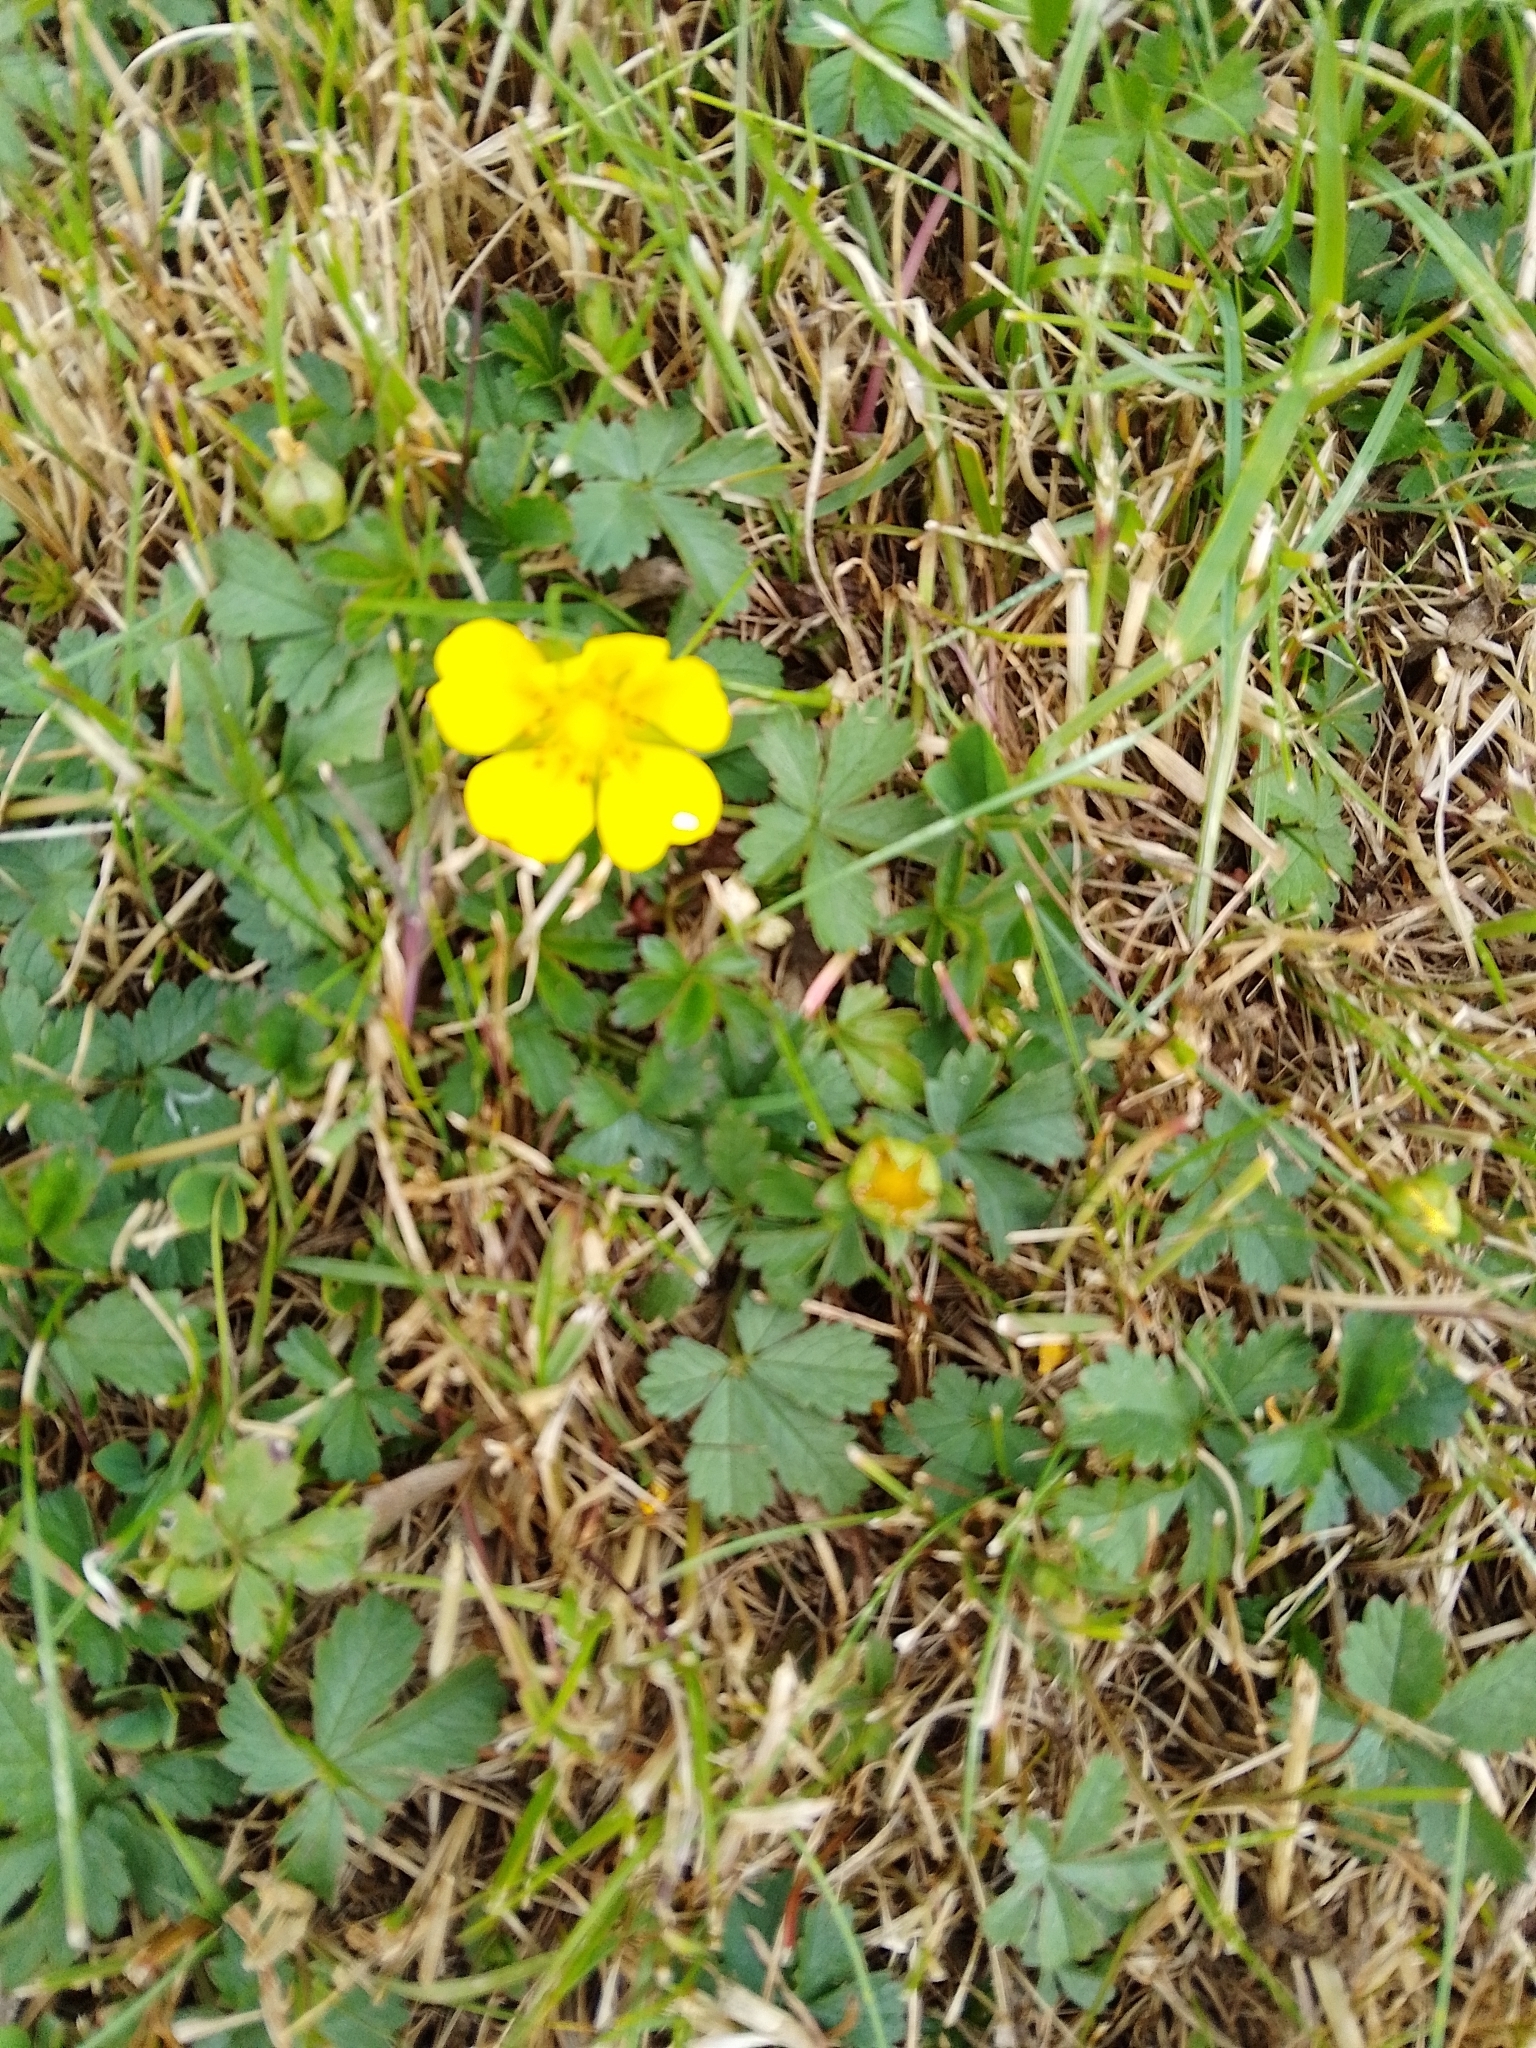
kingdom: Plantae
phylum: Tracheophyta
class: Magnoliopsida
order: Rosales
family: Rosaceae
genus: Potentilla
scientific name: Potentilla reptans
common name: Creeping cinquefoil
